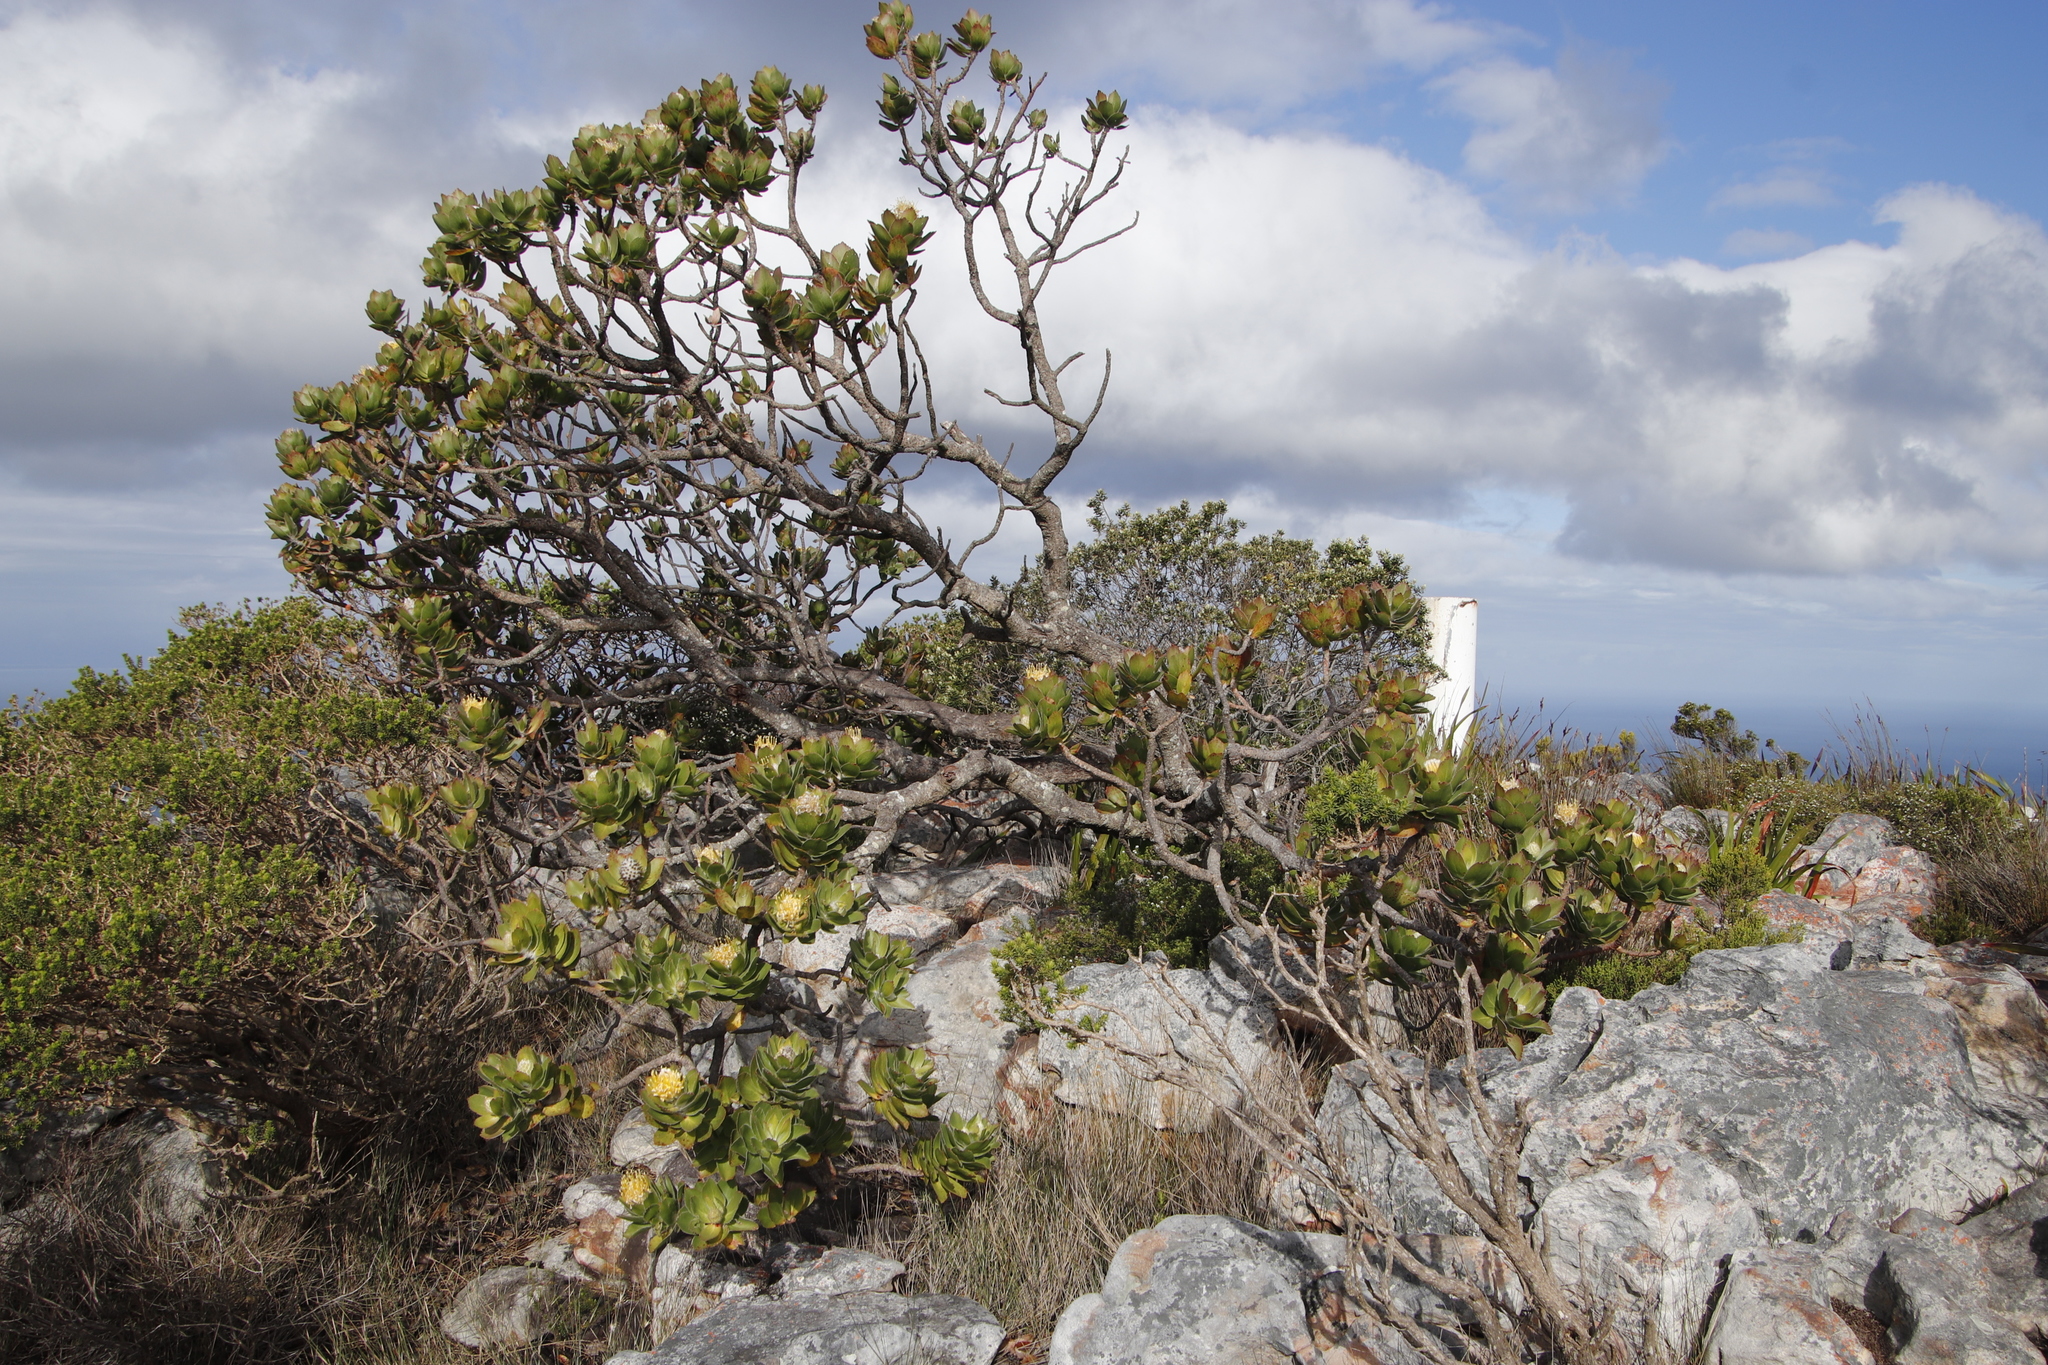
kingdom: Plantae
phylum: Tracheophyta
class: Magnoliopsida
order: Proteales
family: Proteaceae
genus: Leucospermum
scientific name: Leucospermum conocarpodendron
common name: Tree pincushion
